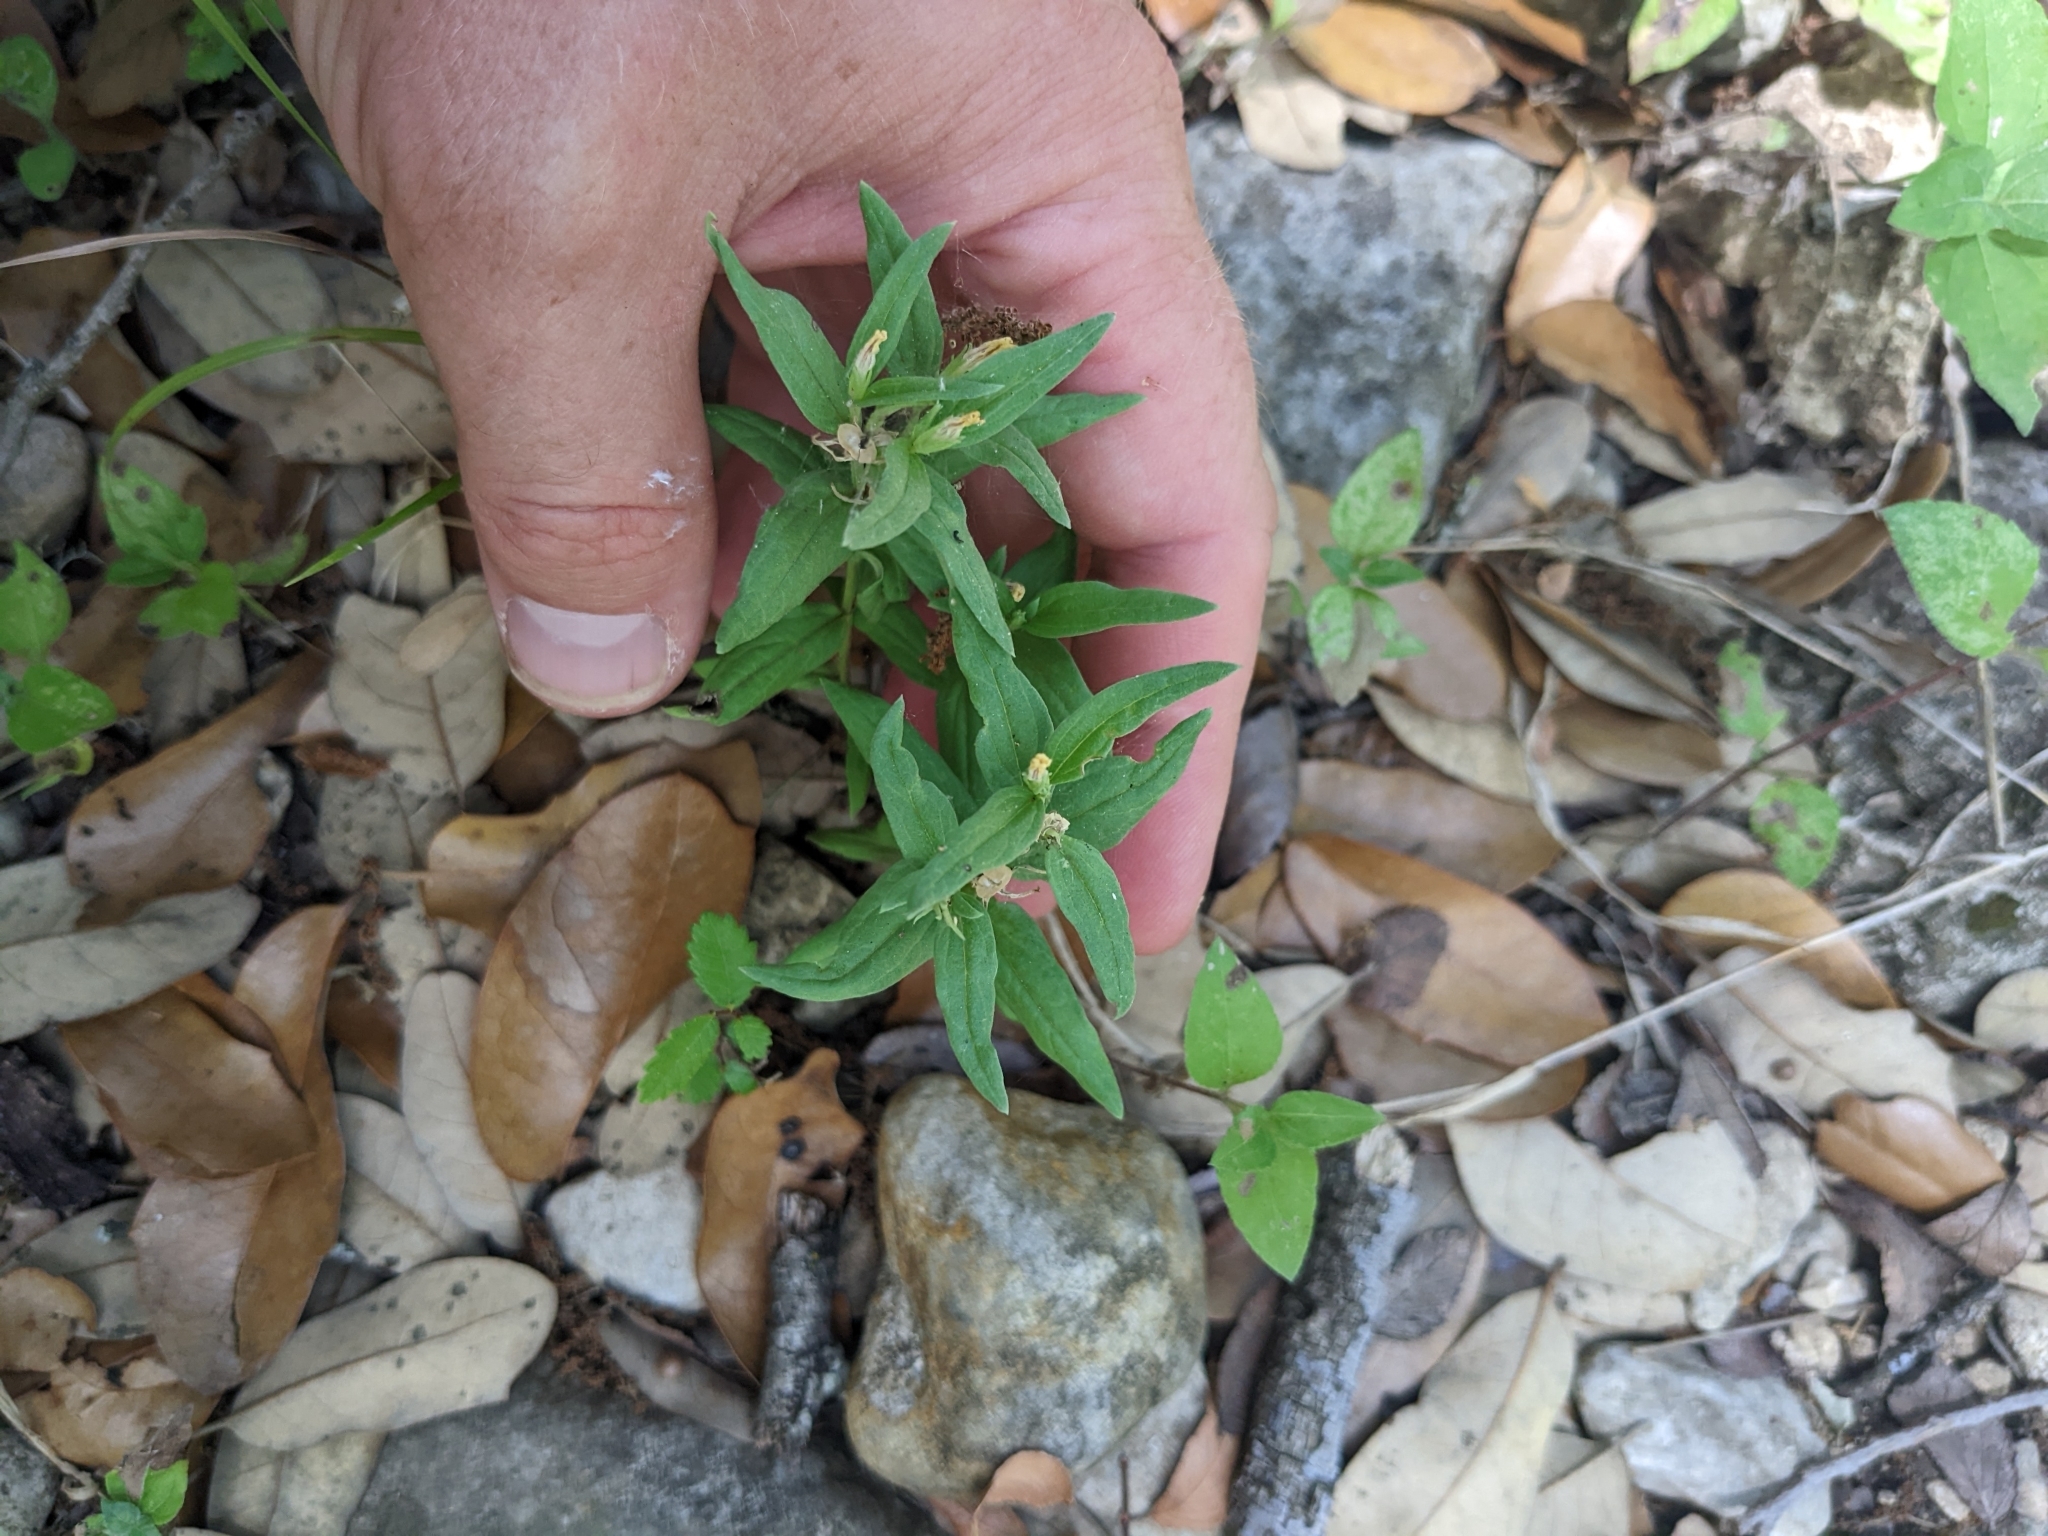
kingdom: Plantae
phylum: Tracheophyta
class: Magnoliopsida
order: Gentianales
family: Loganiaceae
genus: Spigelia
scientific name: Spigelia hedyotidea
